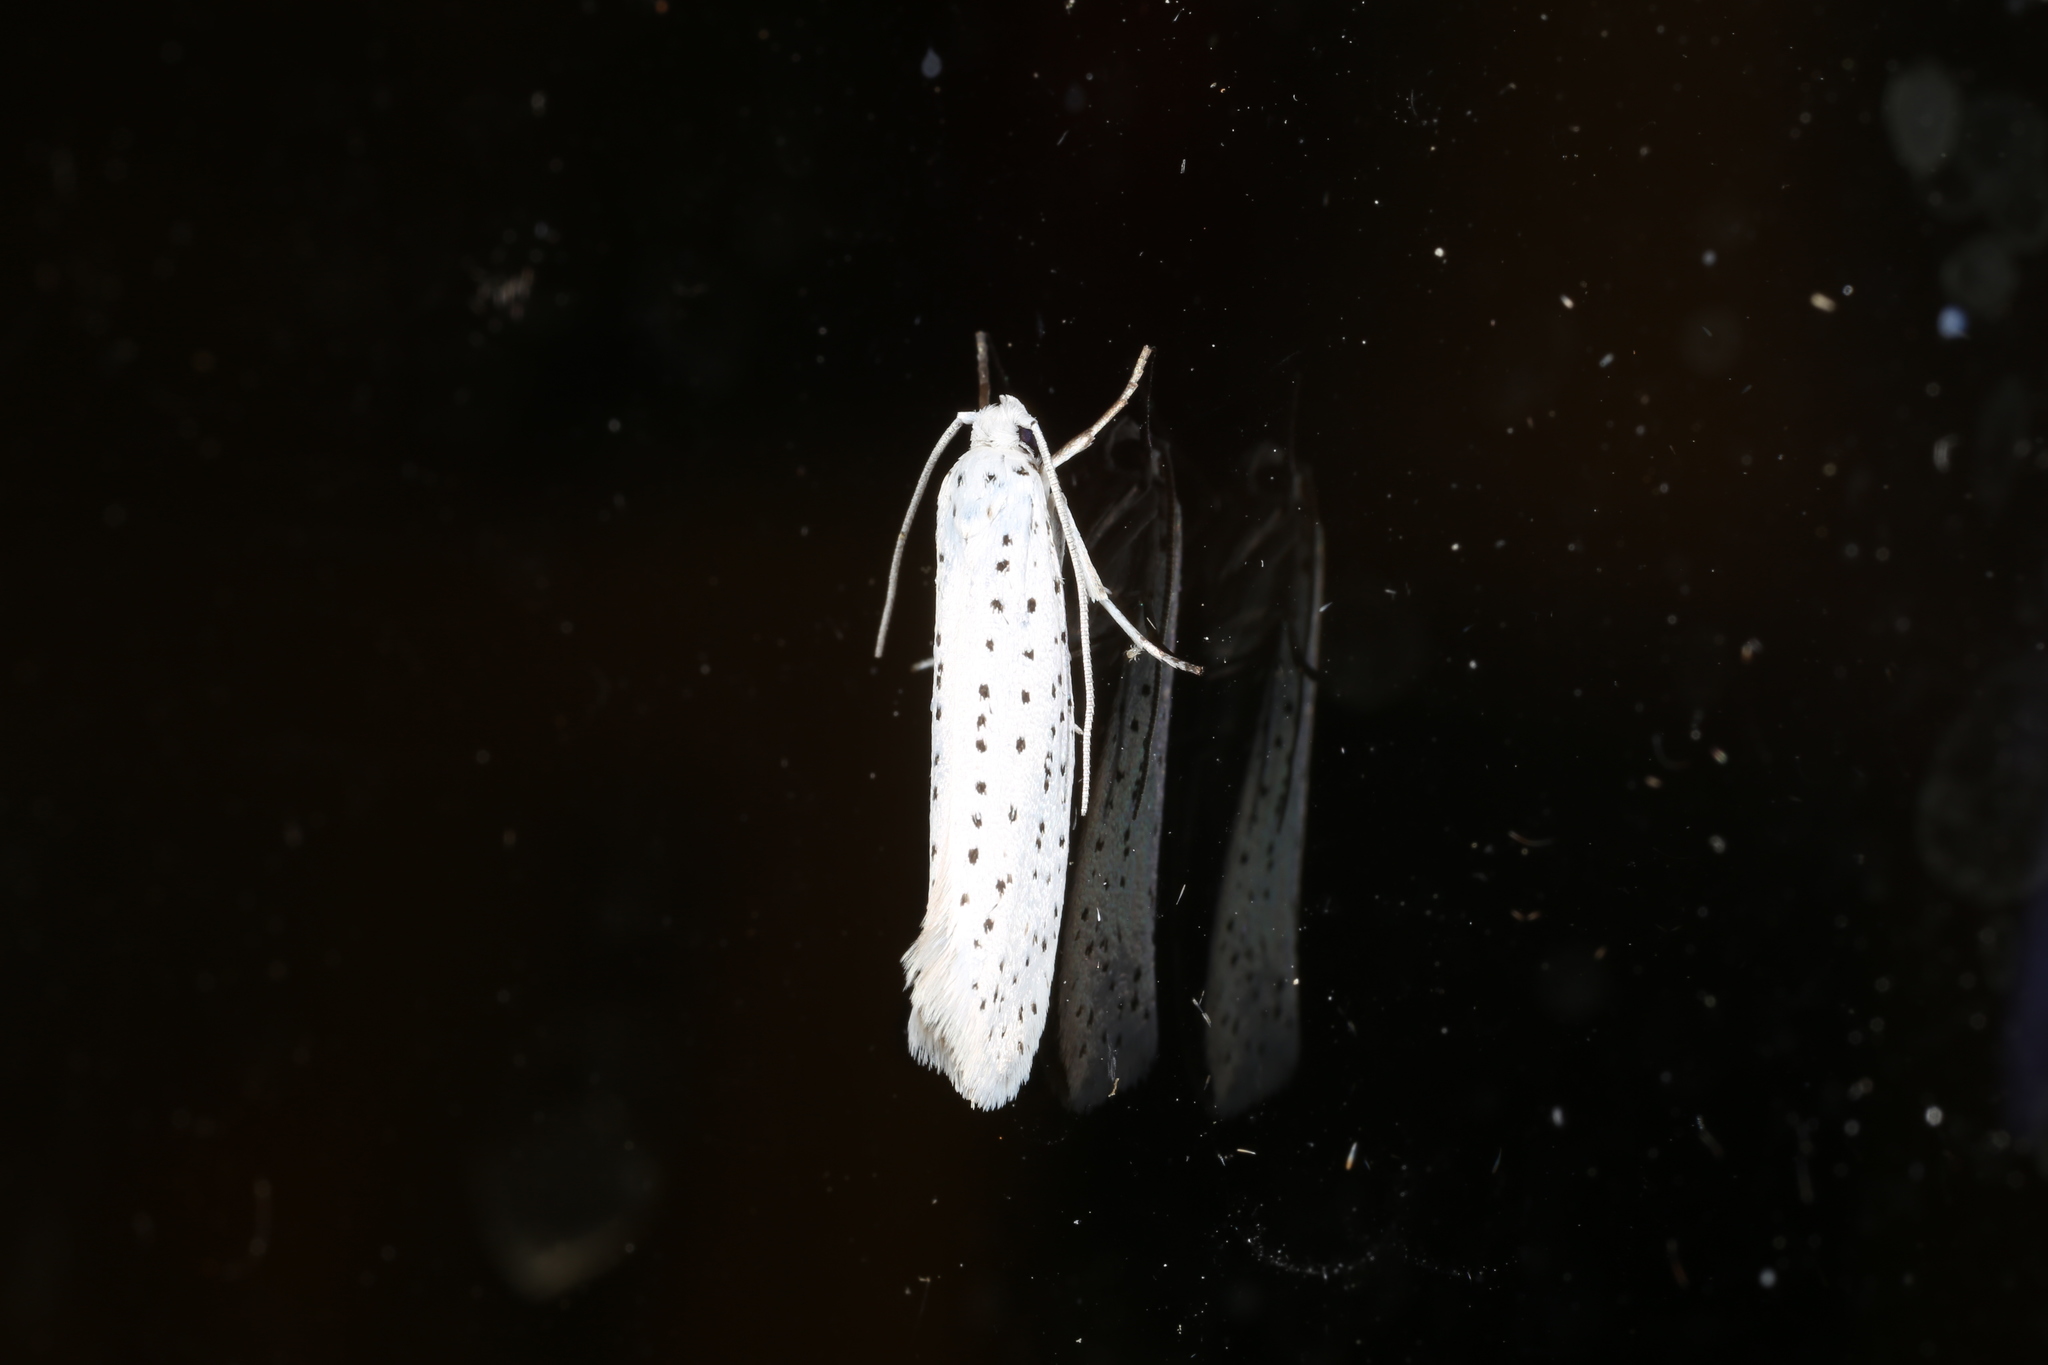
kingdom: Animalia
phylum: Arthropoda
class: Insecta
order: Lepidoptera
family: Yponomeutidae
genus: Yponomeuta
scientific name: Yponomeuta evonymella
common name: Bird-cherry ermine
